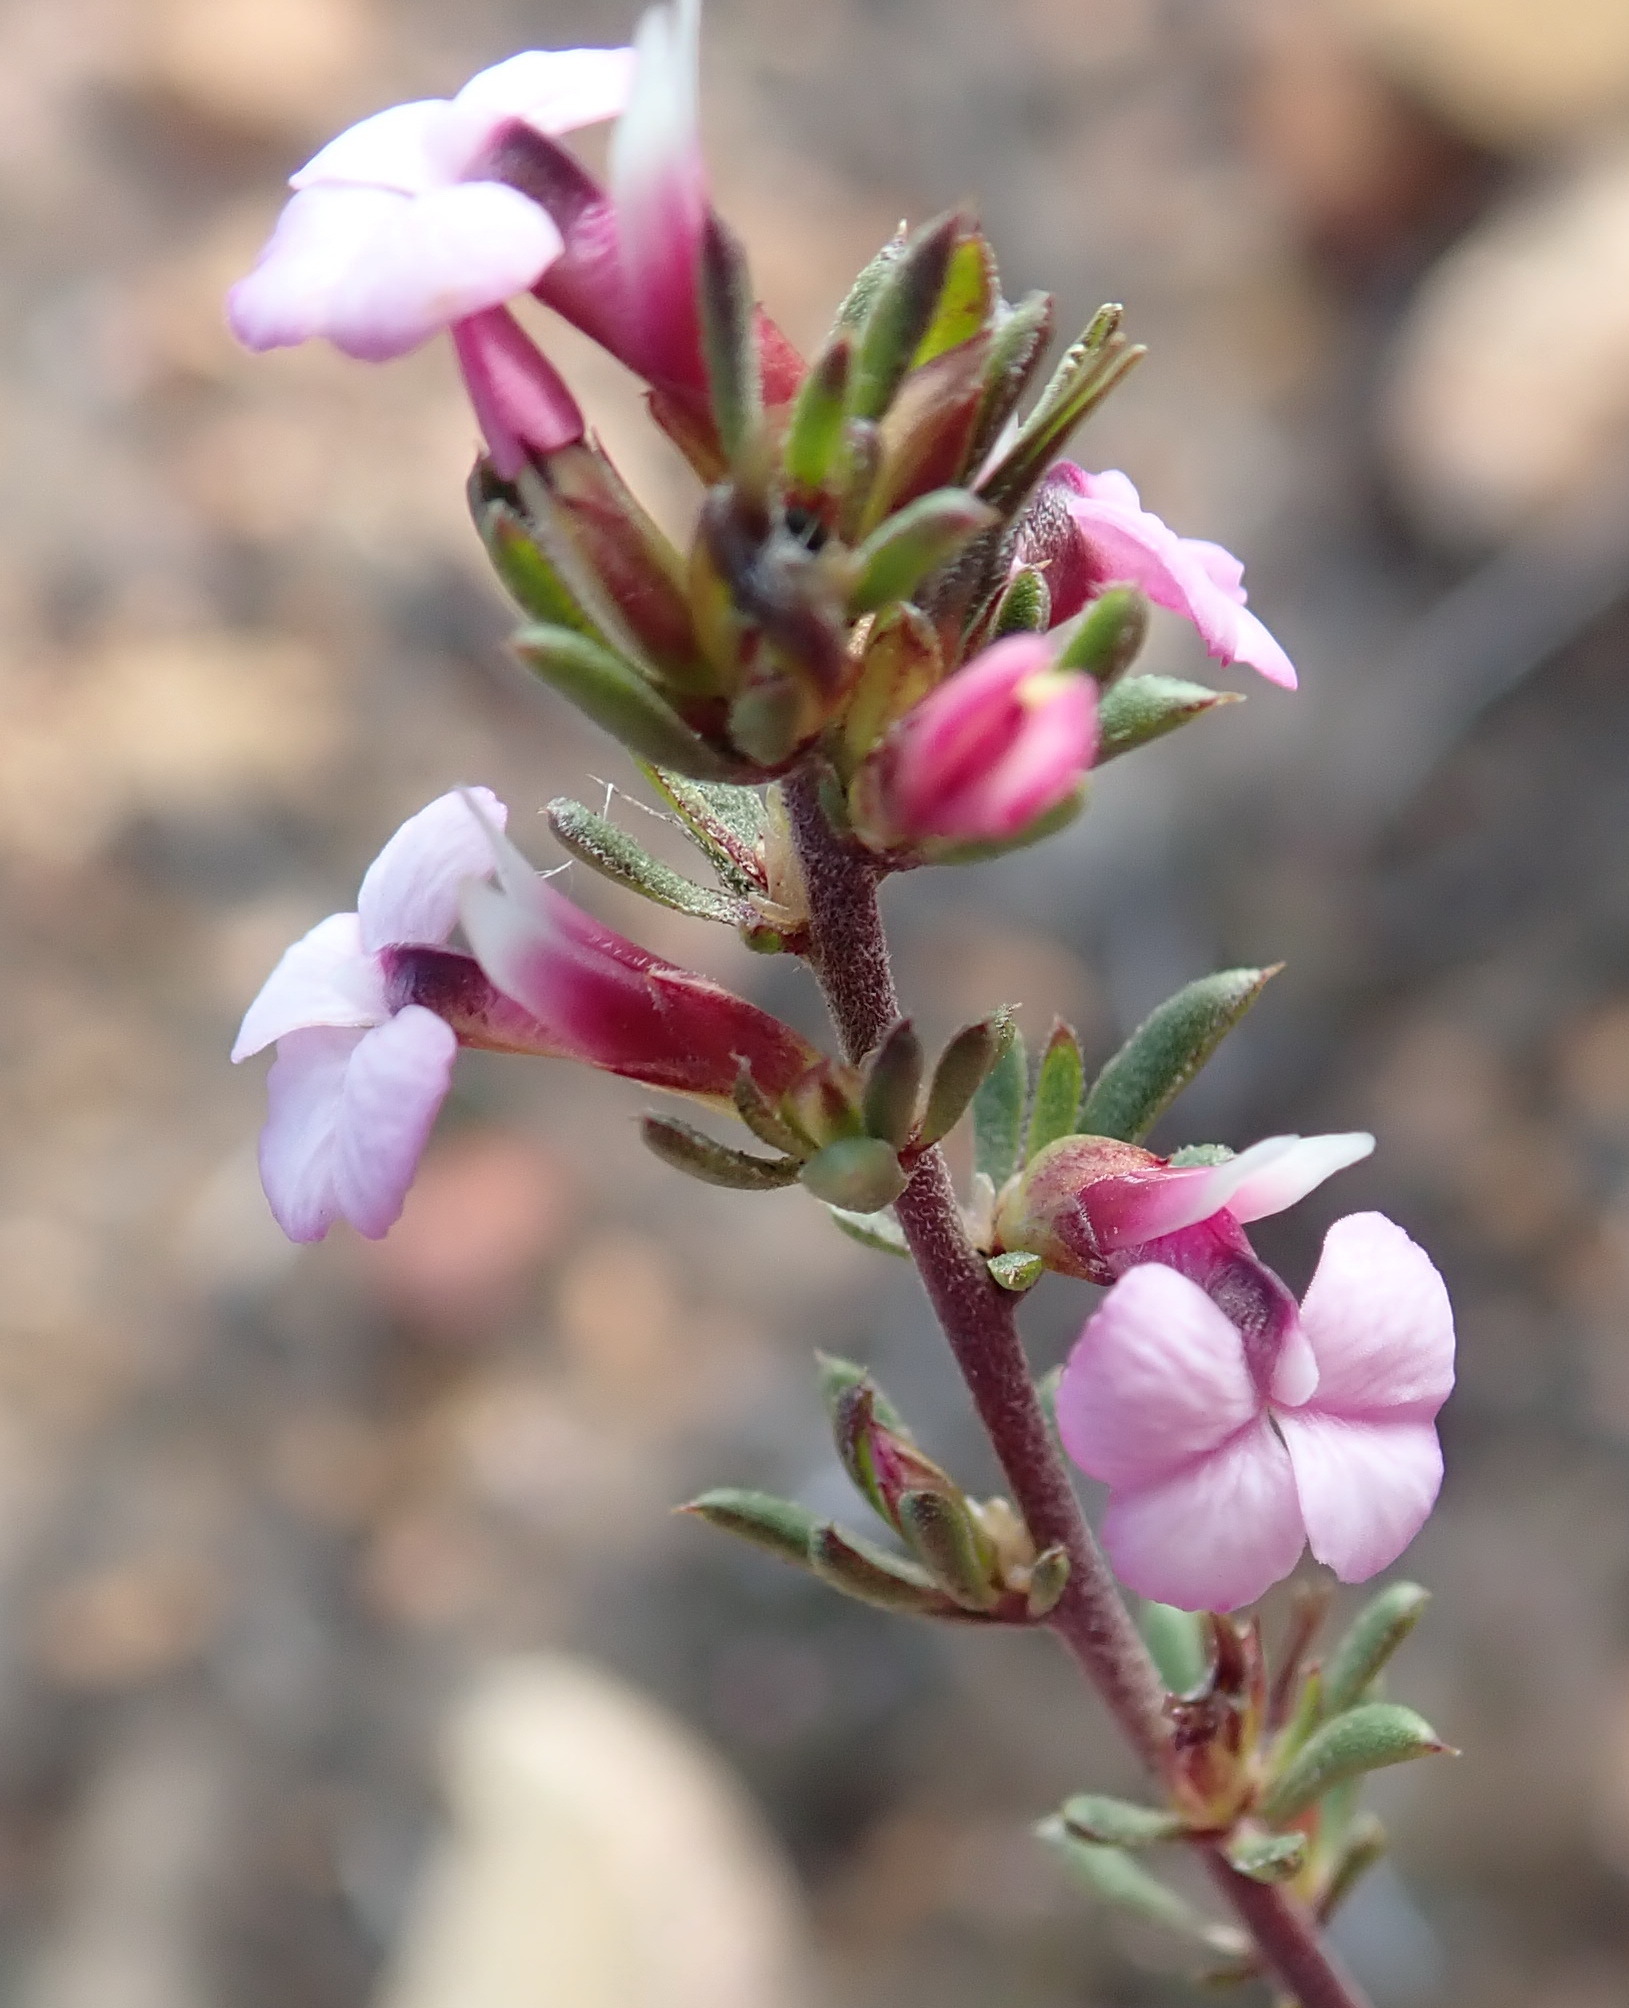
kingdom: Plantae
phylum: Tracheophyta
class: Magnoliopsida
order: Fabales
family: Polygalaceae
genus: Muraltia
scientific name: Muraltia karroica
